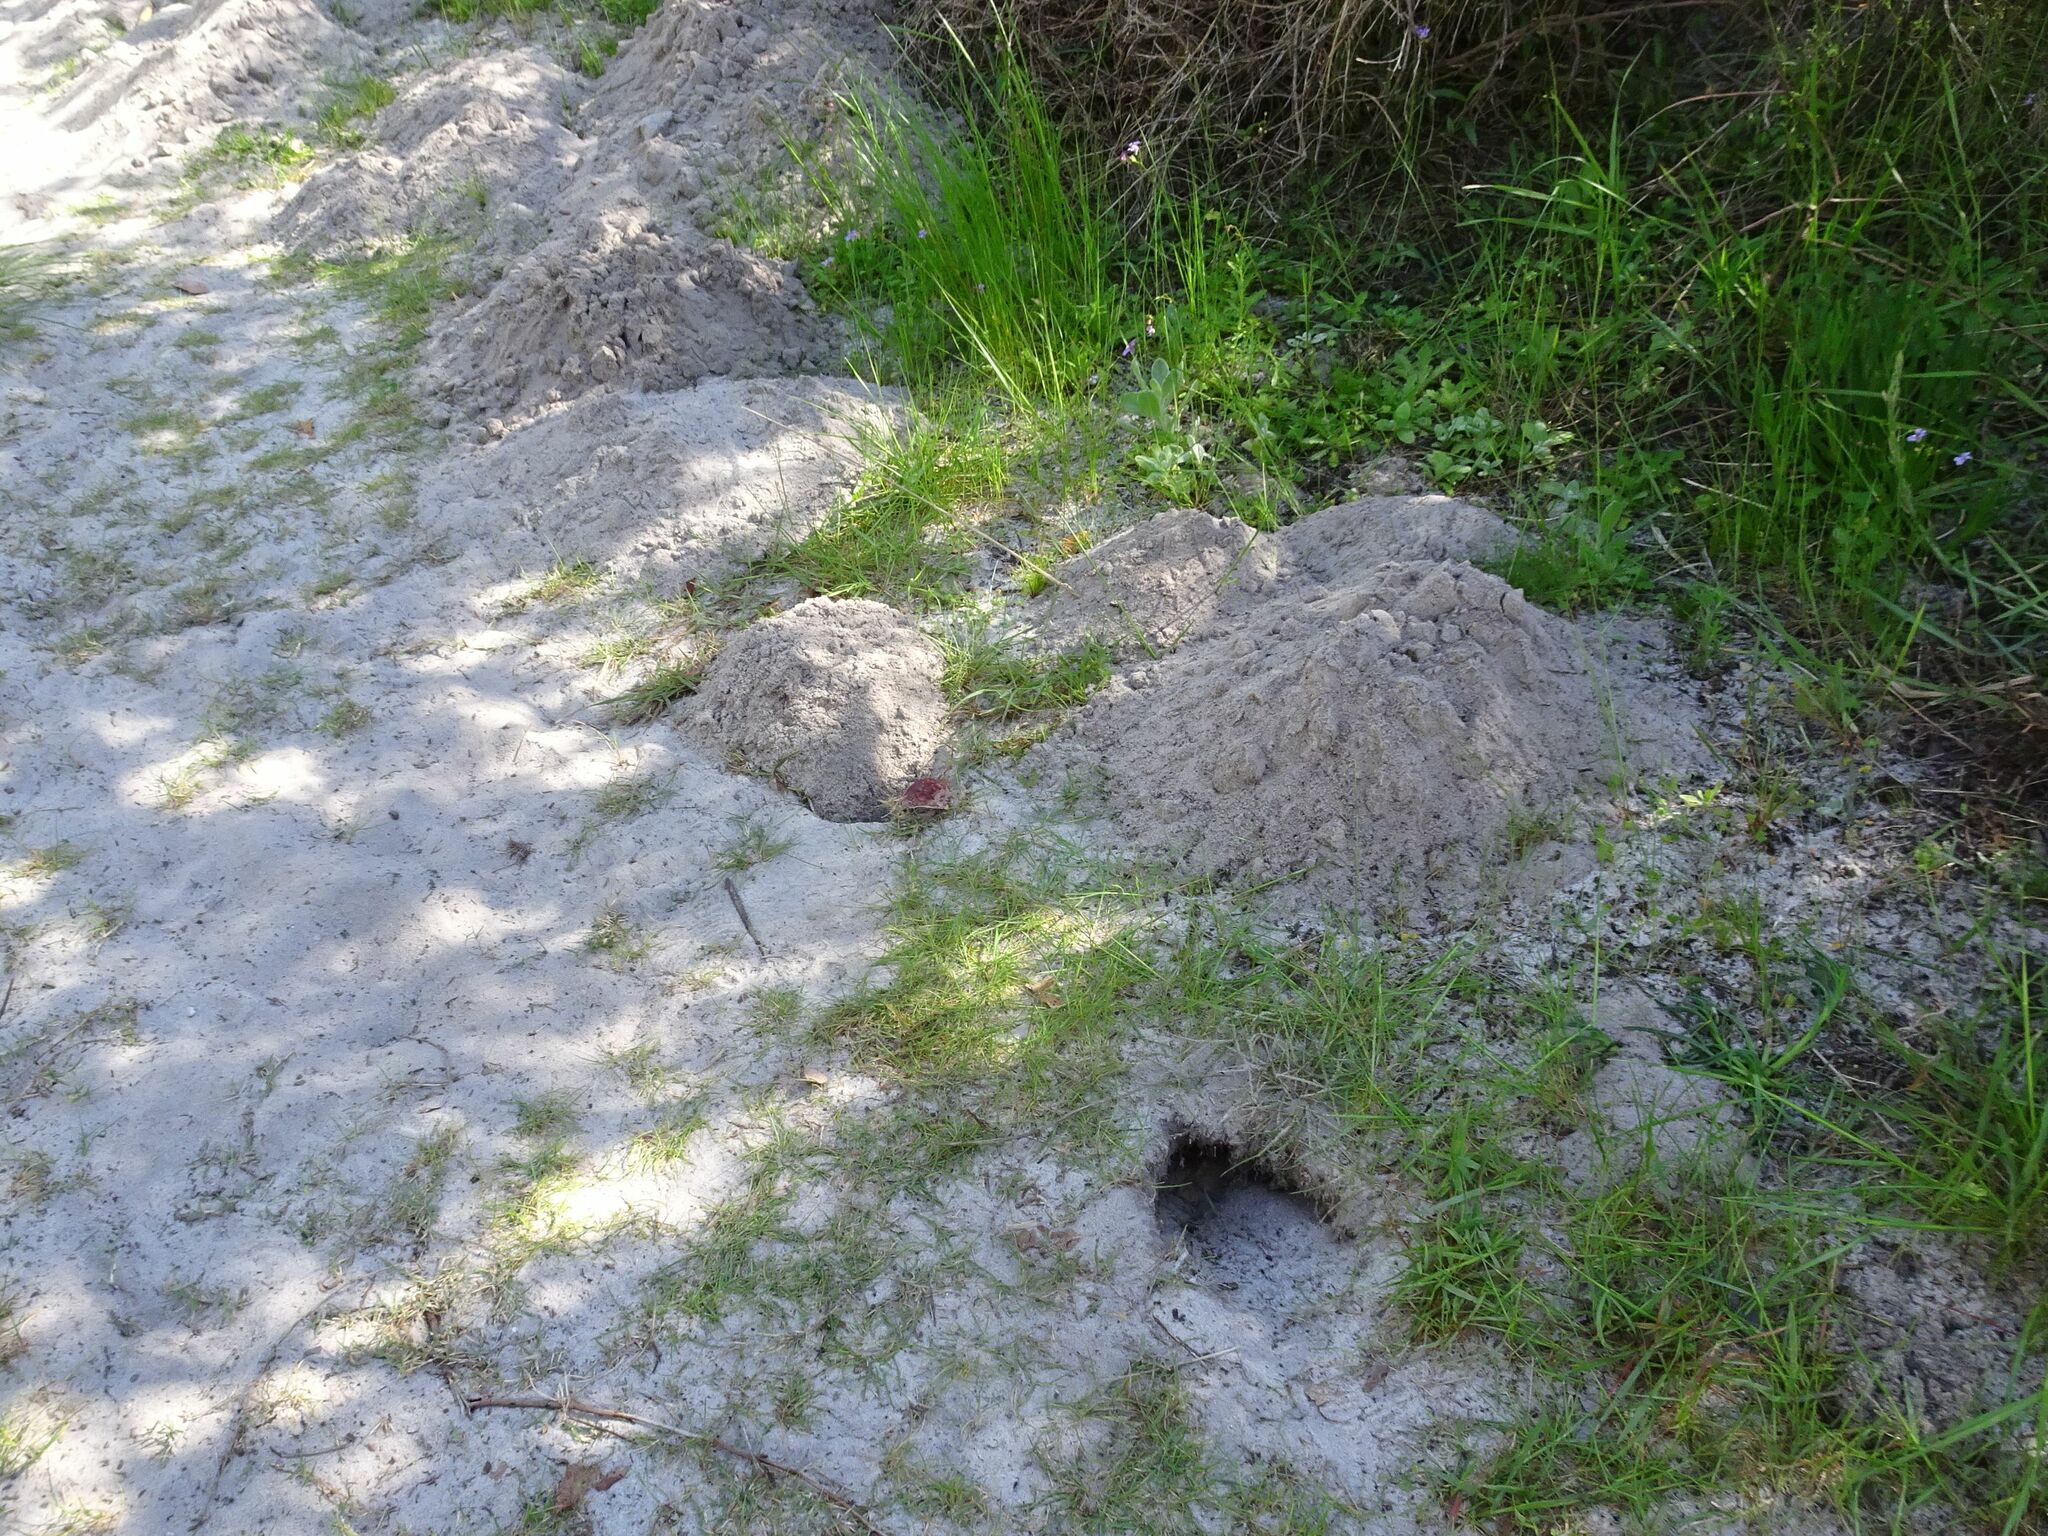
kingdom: Animalia
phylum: Chordata
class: Mammalia
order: Rodentia
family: Bathyergidae
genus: Bathyergus
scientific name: Bathyergus suillus
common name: Cape dune mole rat
